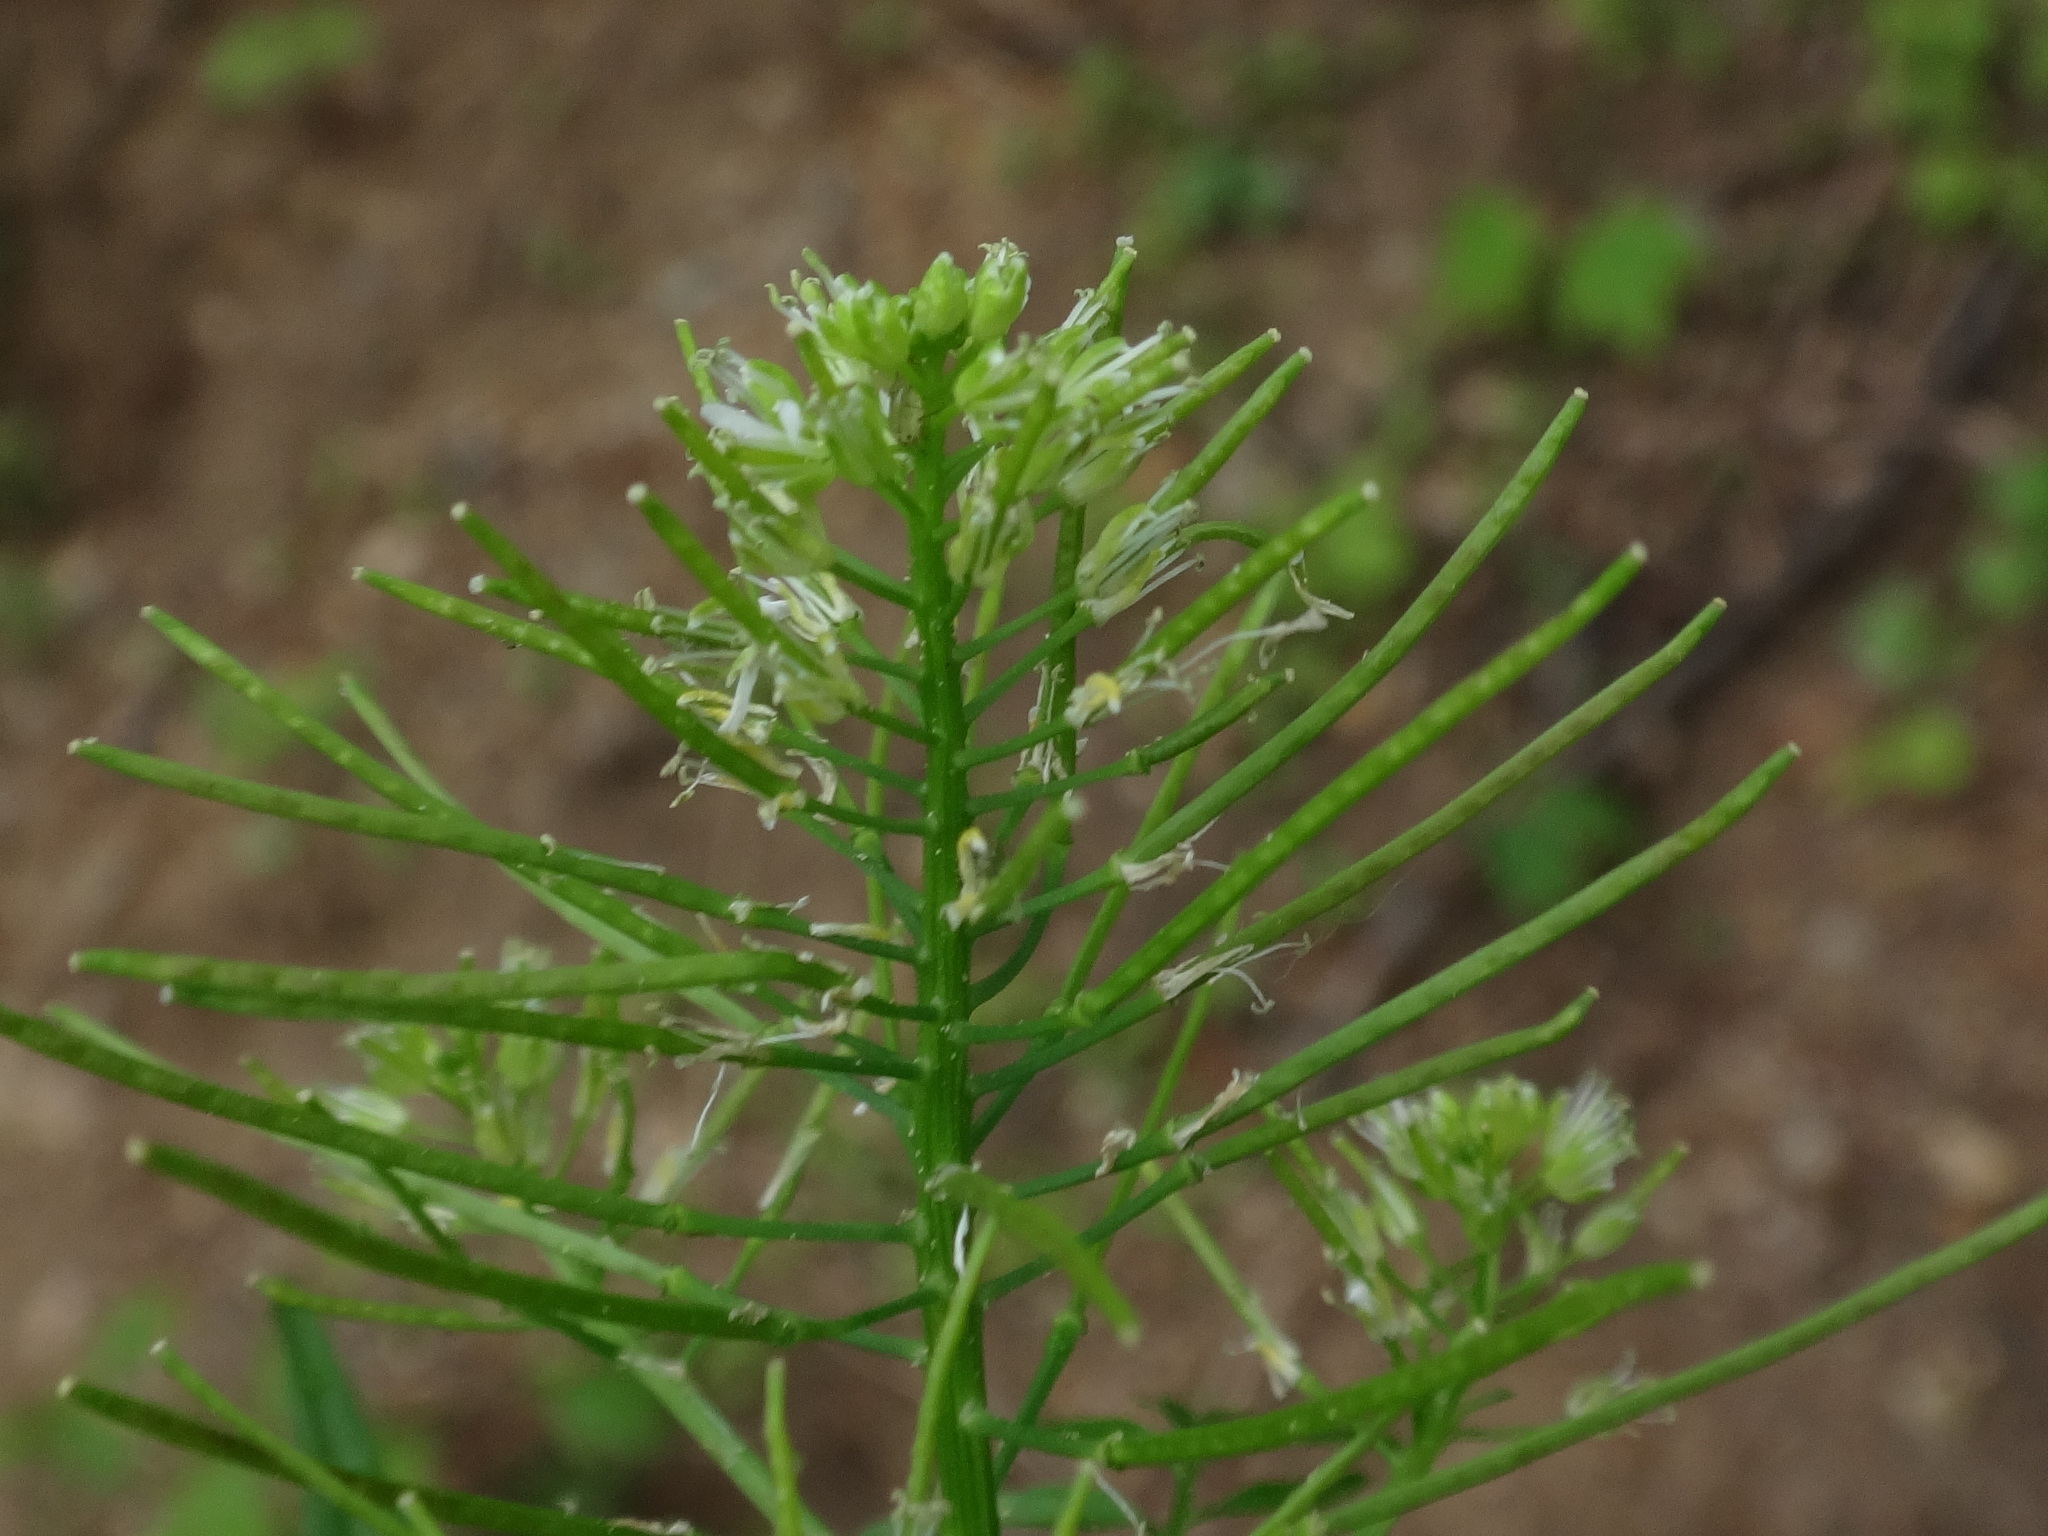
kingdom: Plantae
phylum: Tracheophyta
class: Magnoliopsida
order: Brassicales
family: Brassicaceae
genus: Cardamine
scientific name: Cardamine impatiens
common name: Narrow-leaved bitter-cress
